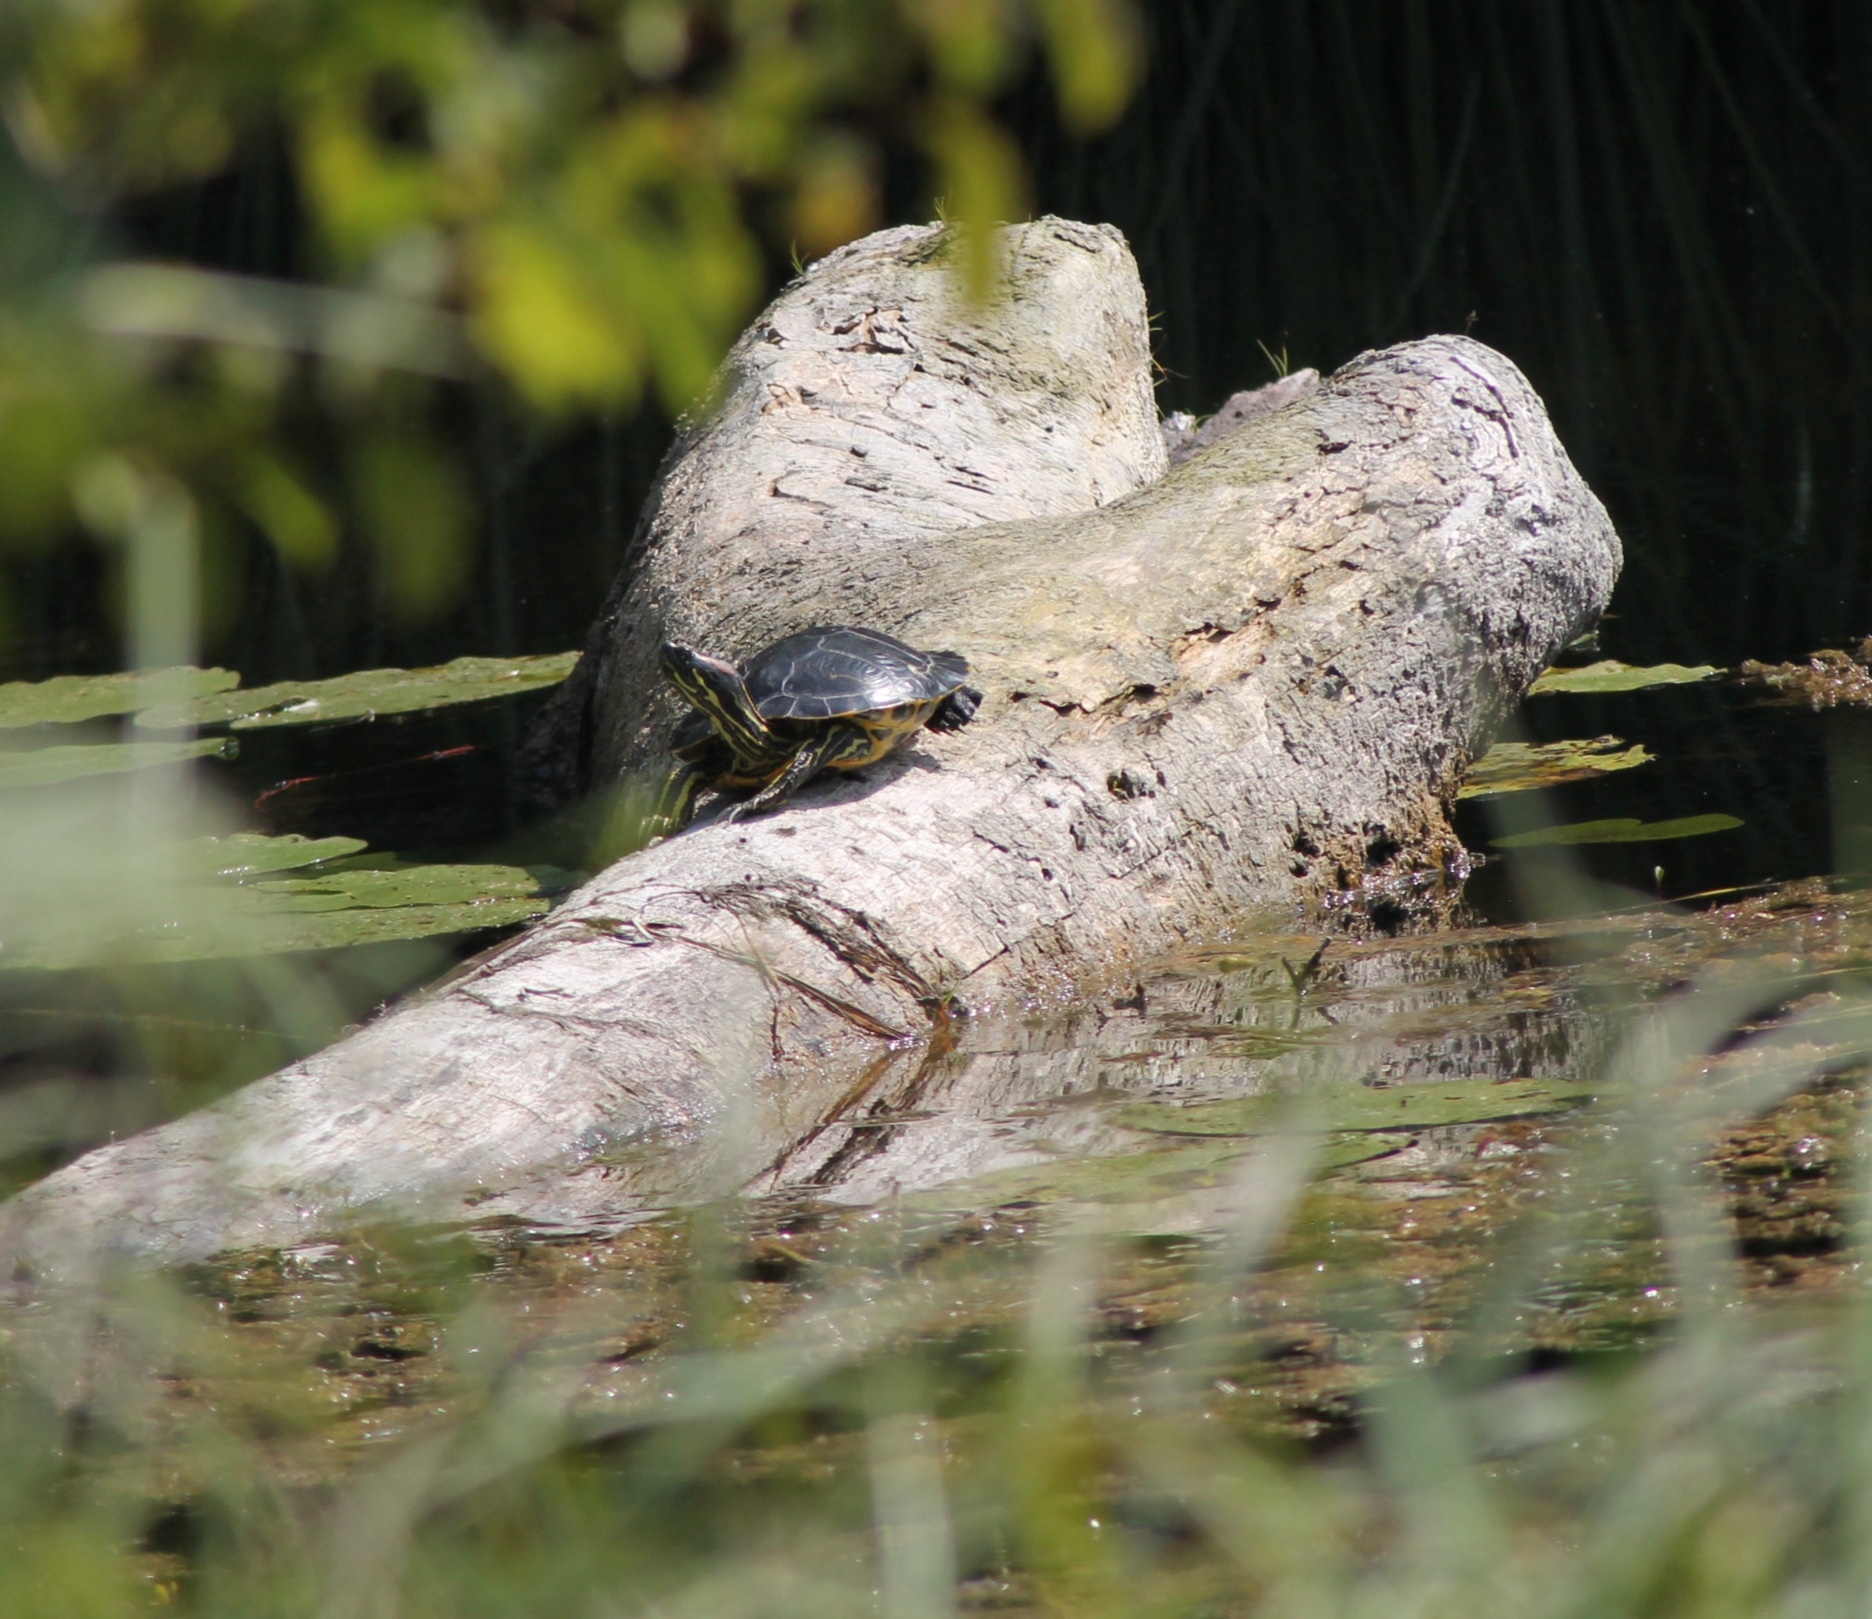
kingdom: Animalia
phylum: Chordata
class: Testudines
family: Emydidae
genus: Trachemys
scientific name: Trachemys scripta
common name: Slider
